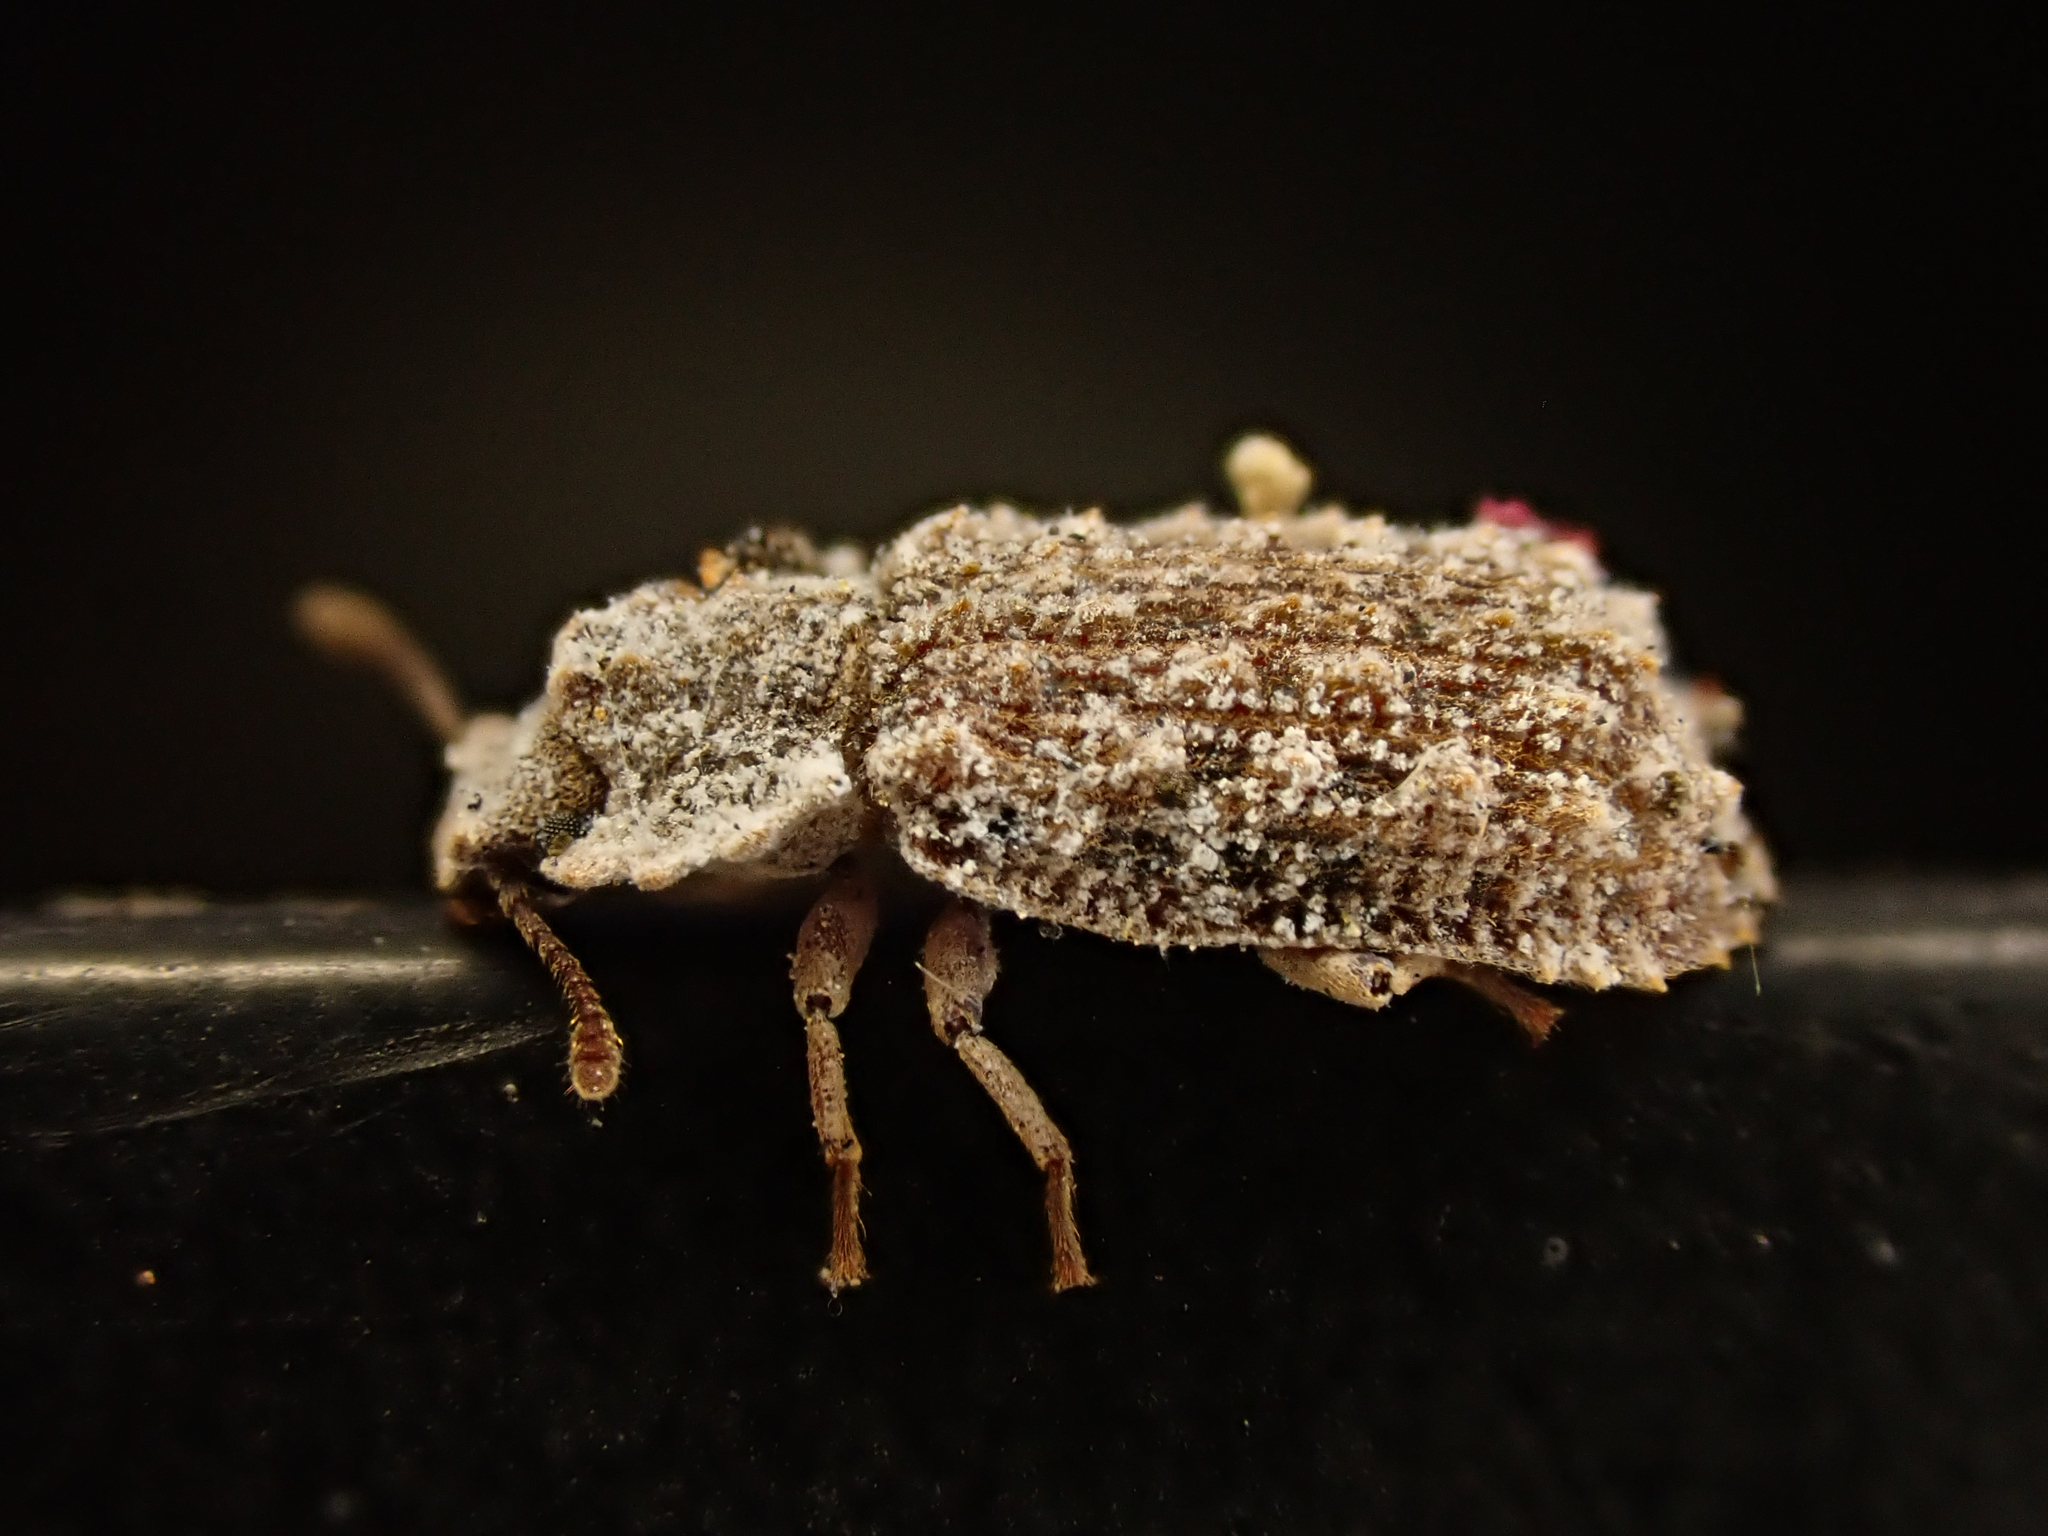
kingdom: Animalia
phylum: Arthropoda
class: Insecta
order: Coleoptera
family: Zopheridae
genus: Pristoderus
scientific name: Pristoderus
